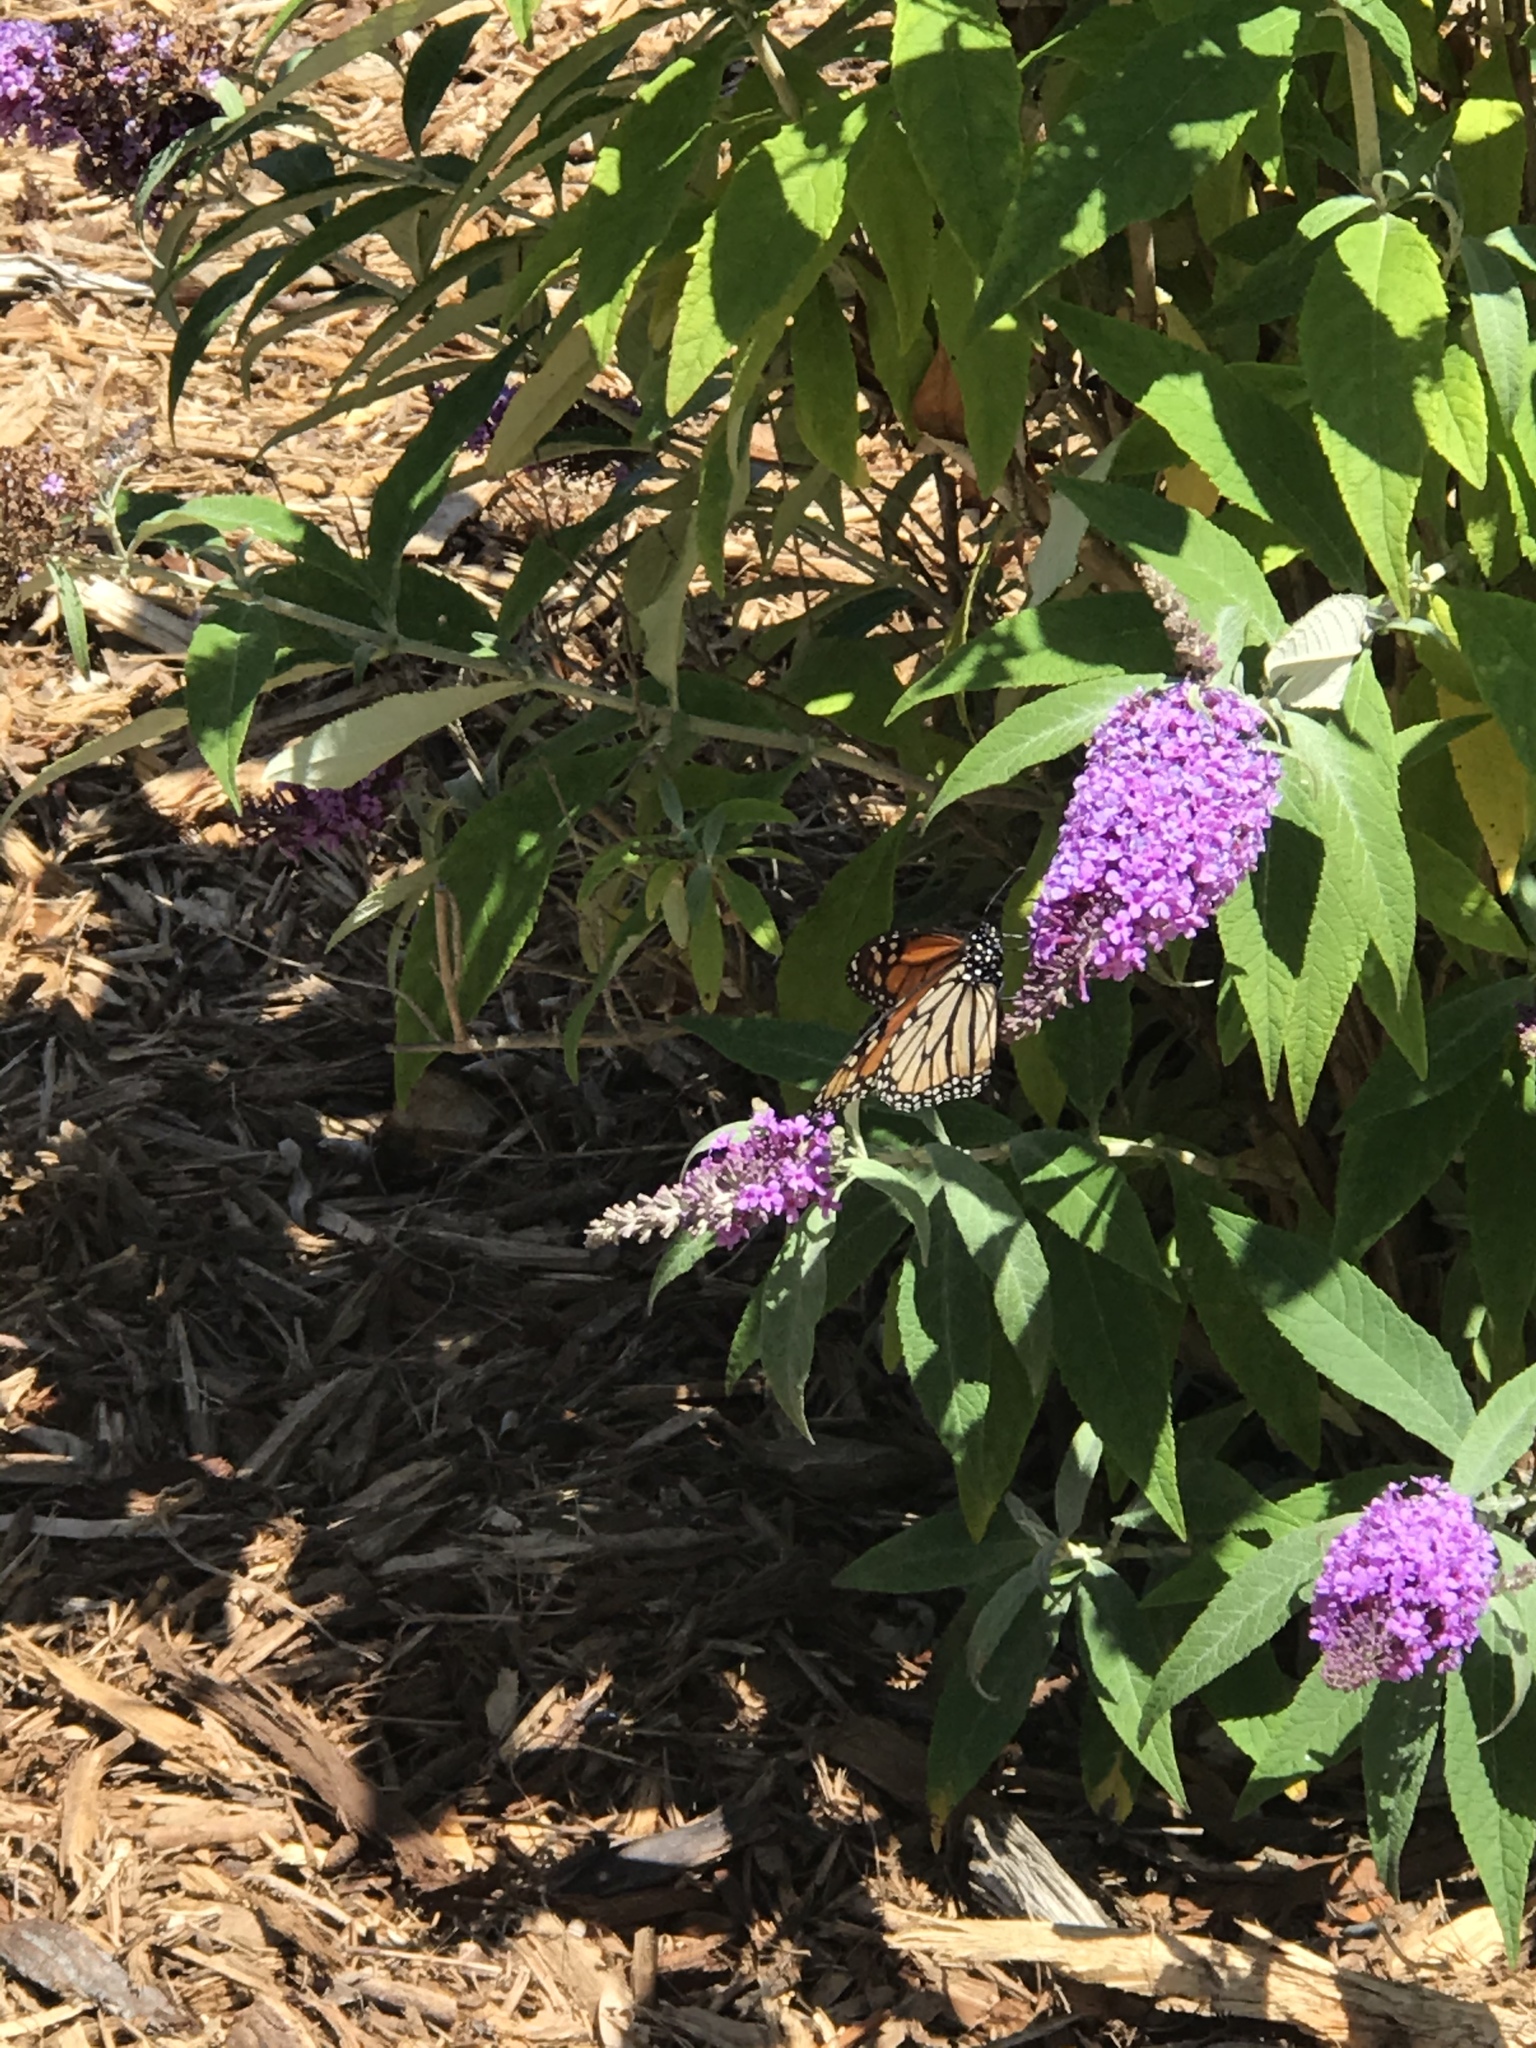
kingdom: Animalia
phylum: Arthropoda
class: Insecta
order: Lepidoptera
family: Nymphalidae
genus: Danaus
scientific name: Danaus plexippus
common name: Monarch
